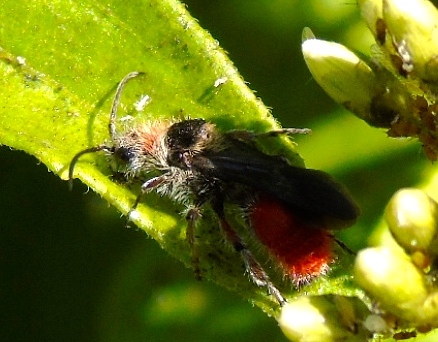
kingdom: Animalia
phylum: Arthropoda
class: Insecta
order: Hymenoptera
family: Mutillidae
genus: Dasymutilla
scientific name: Dasymutilla foxi
